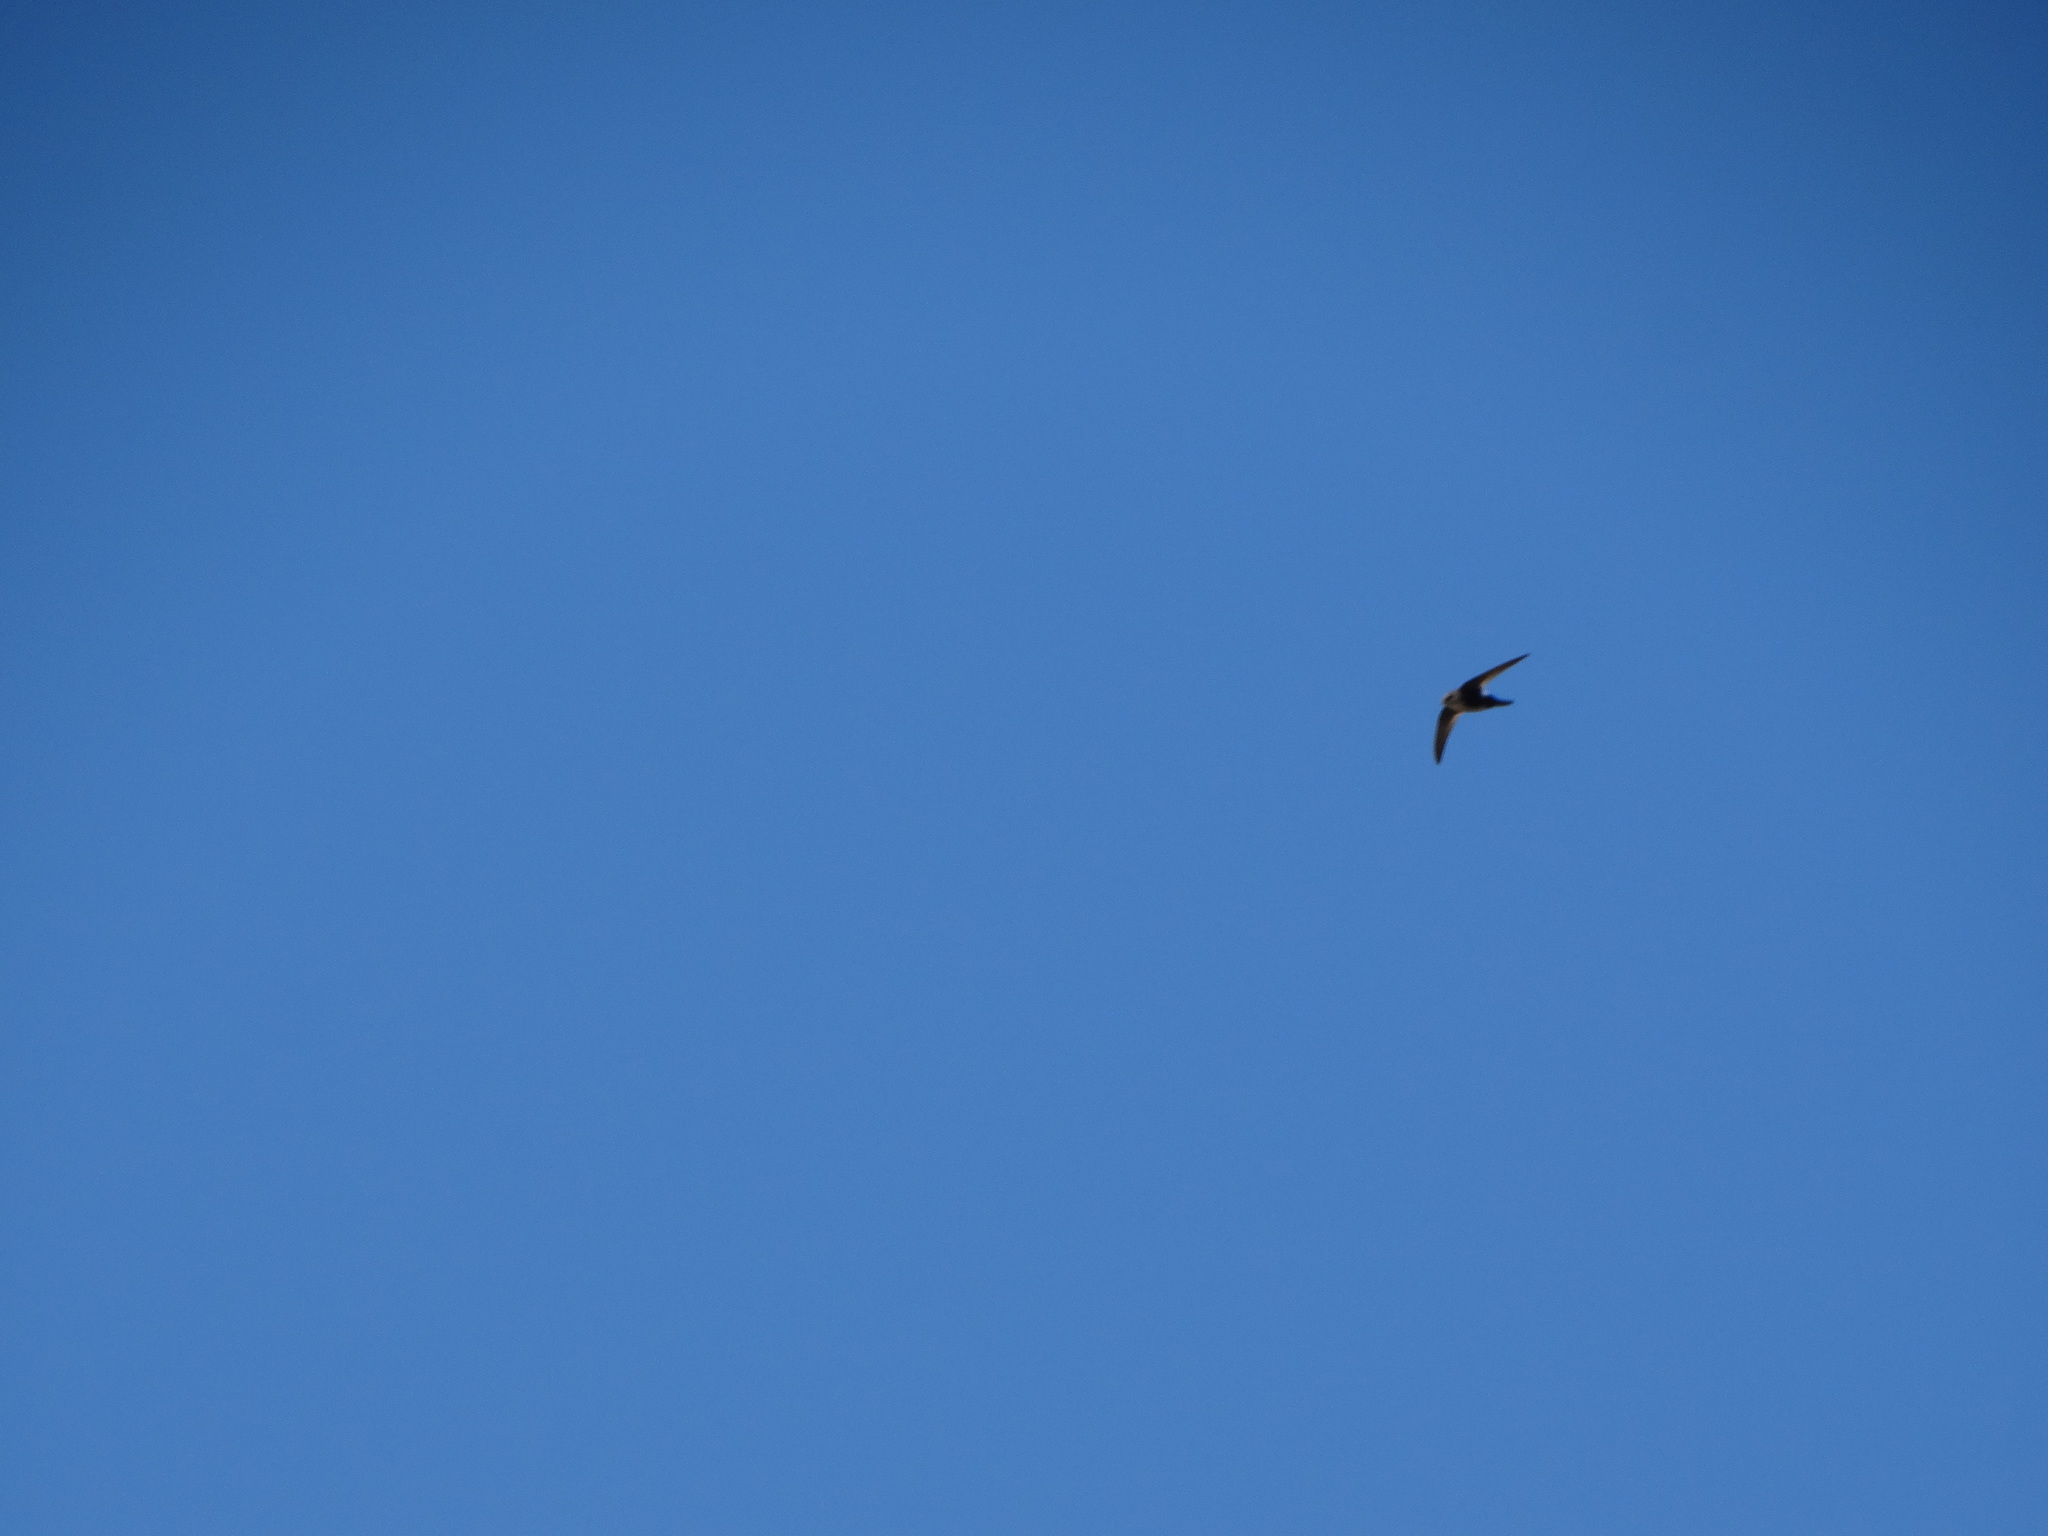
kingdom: Animalia
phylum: Chordata
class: Aves
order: Apodiformes
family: Apodidae
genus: Aeronautes
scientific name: Aeronautes saxatalis
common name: White-throated swift
